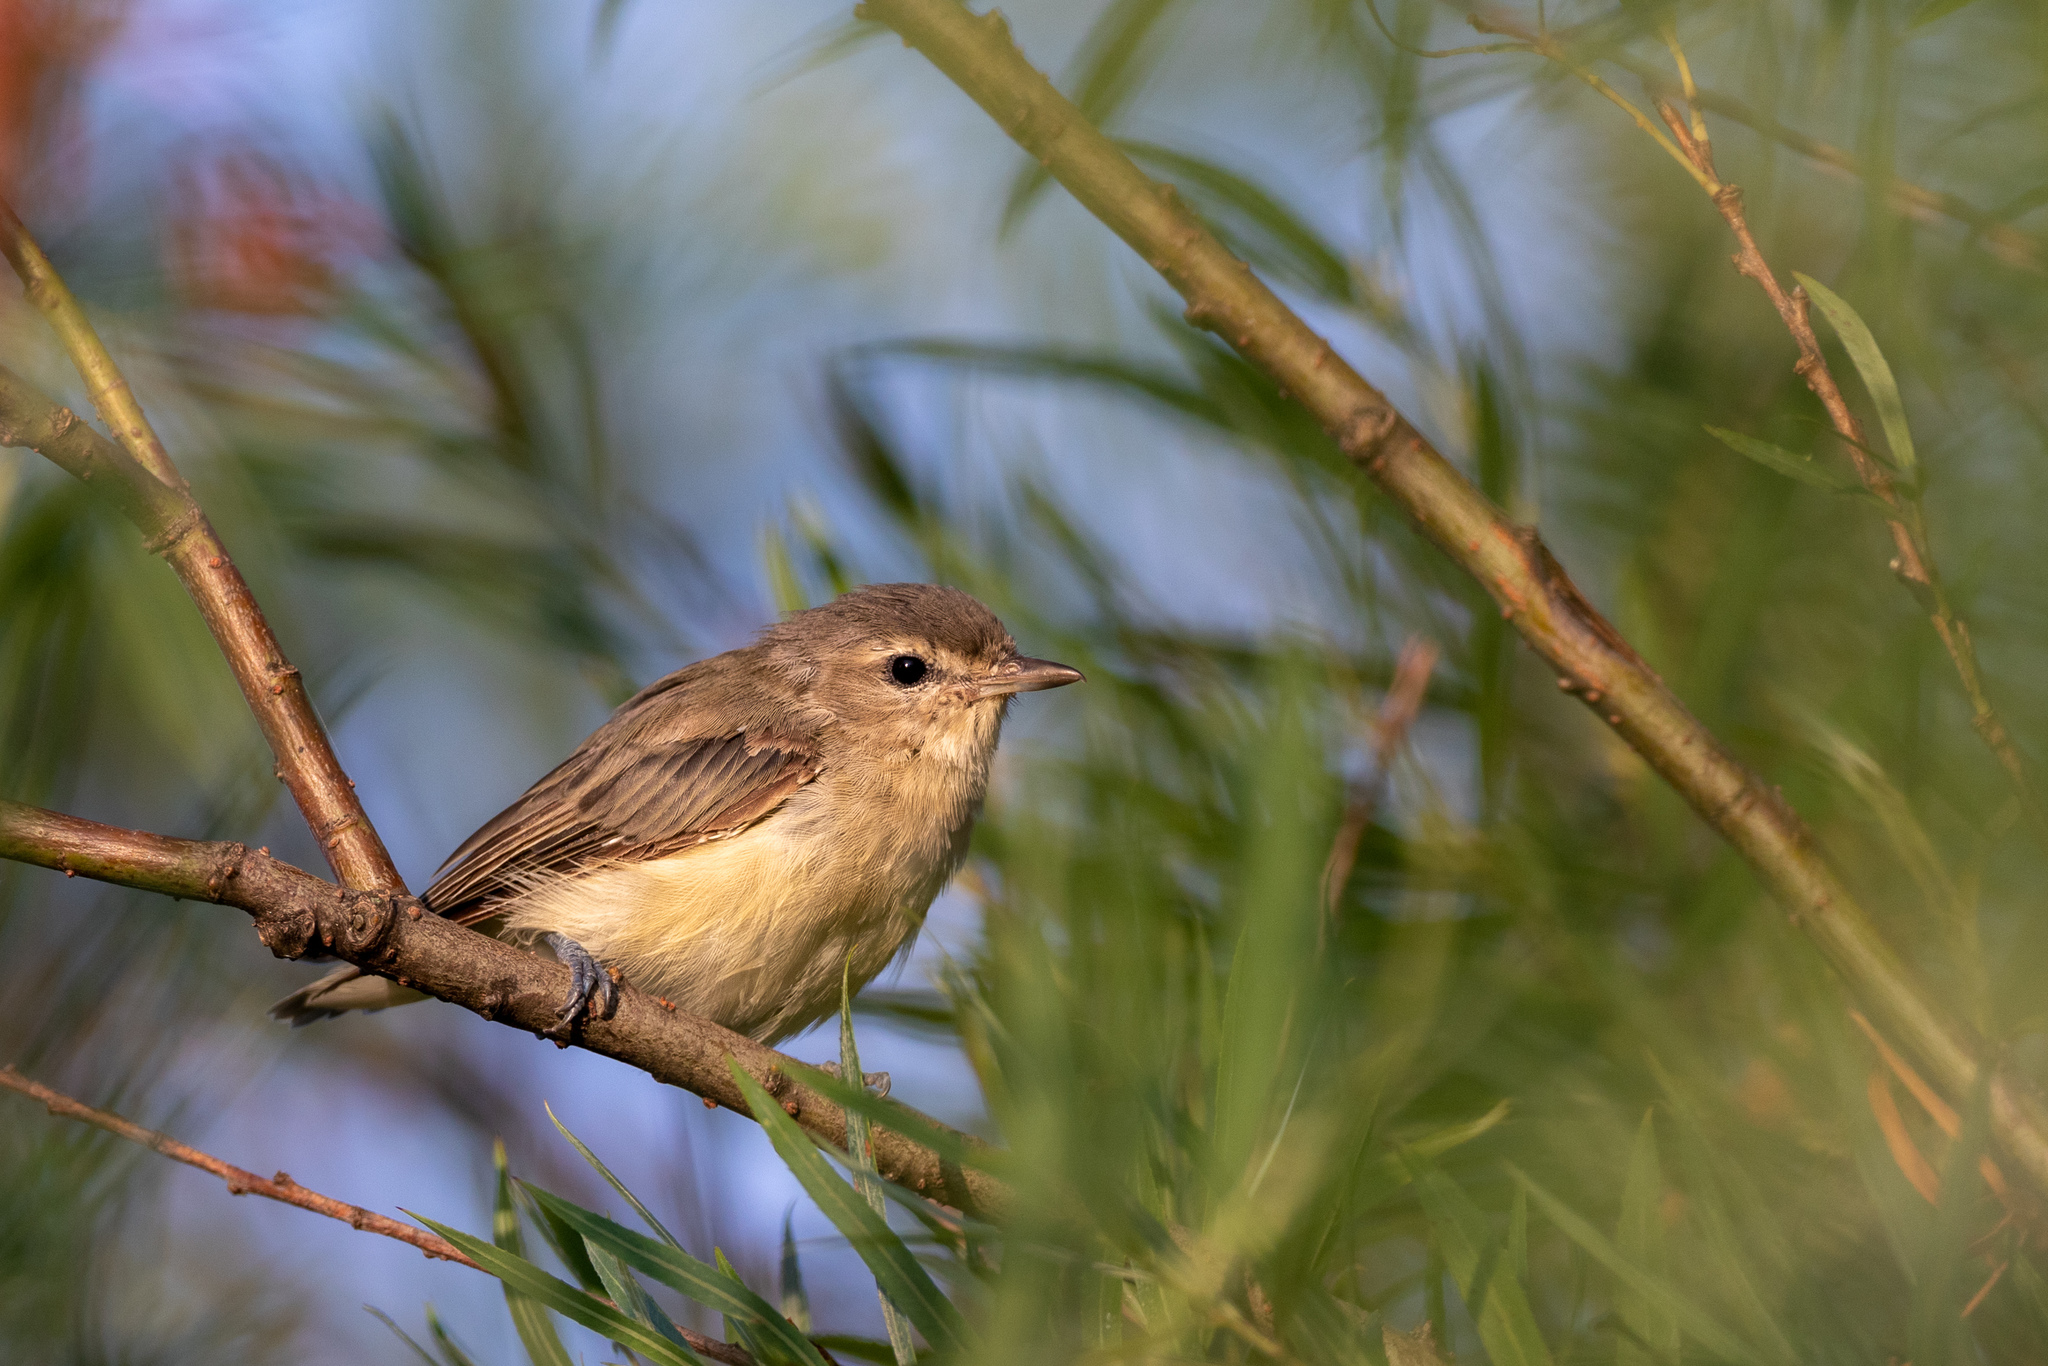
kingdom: Animalia
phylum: Chordata
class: Aves
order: Passeriformes
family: Vireonidae
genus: Vireo
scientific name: Vireo gilvus
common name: Warbling vireo
